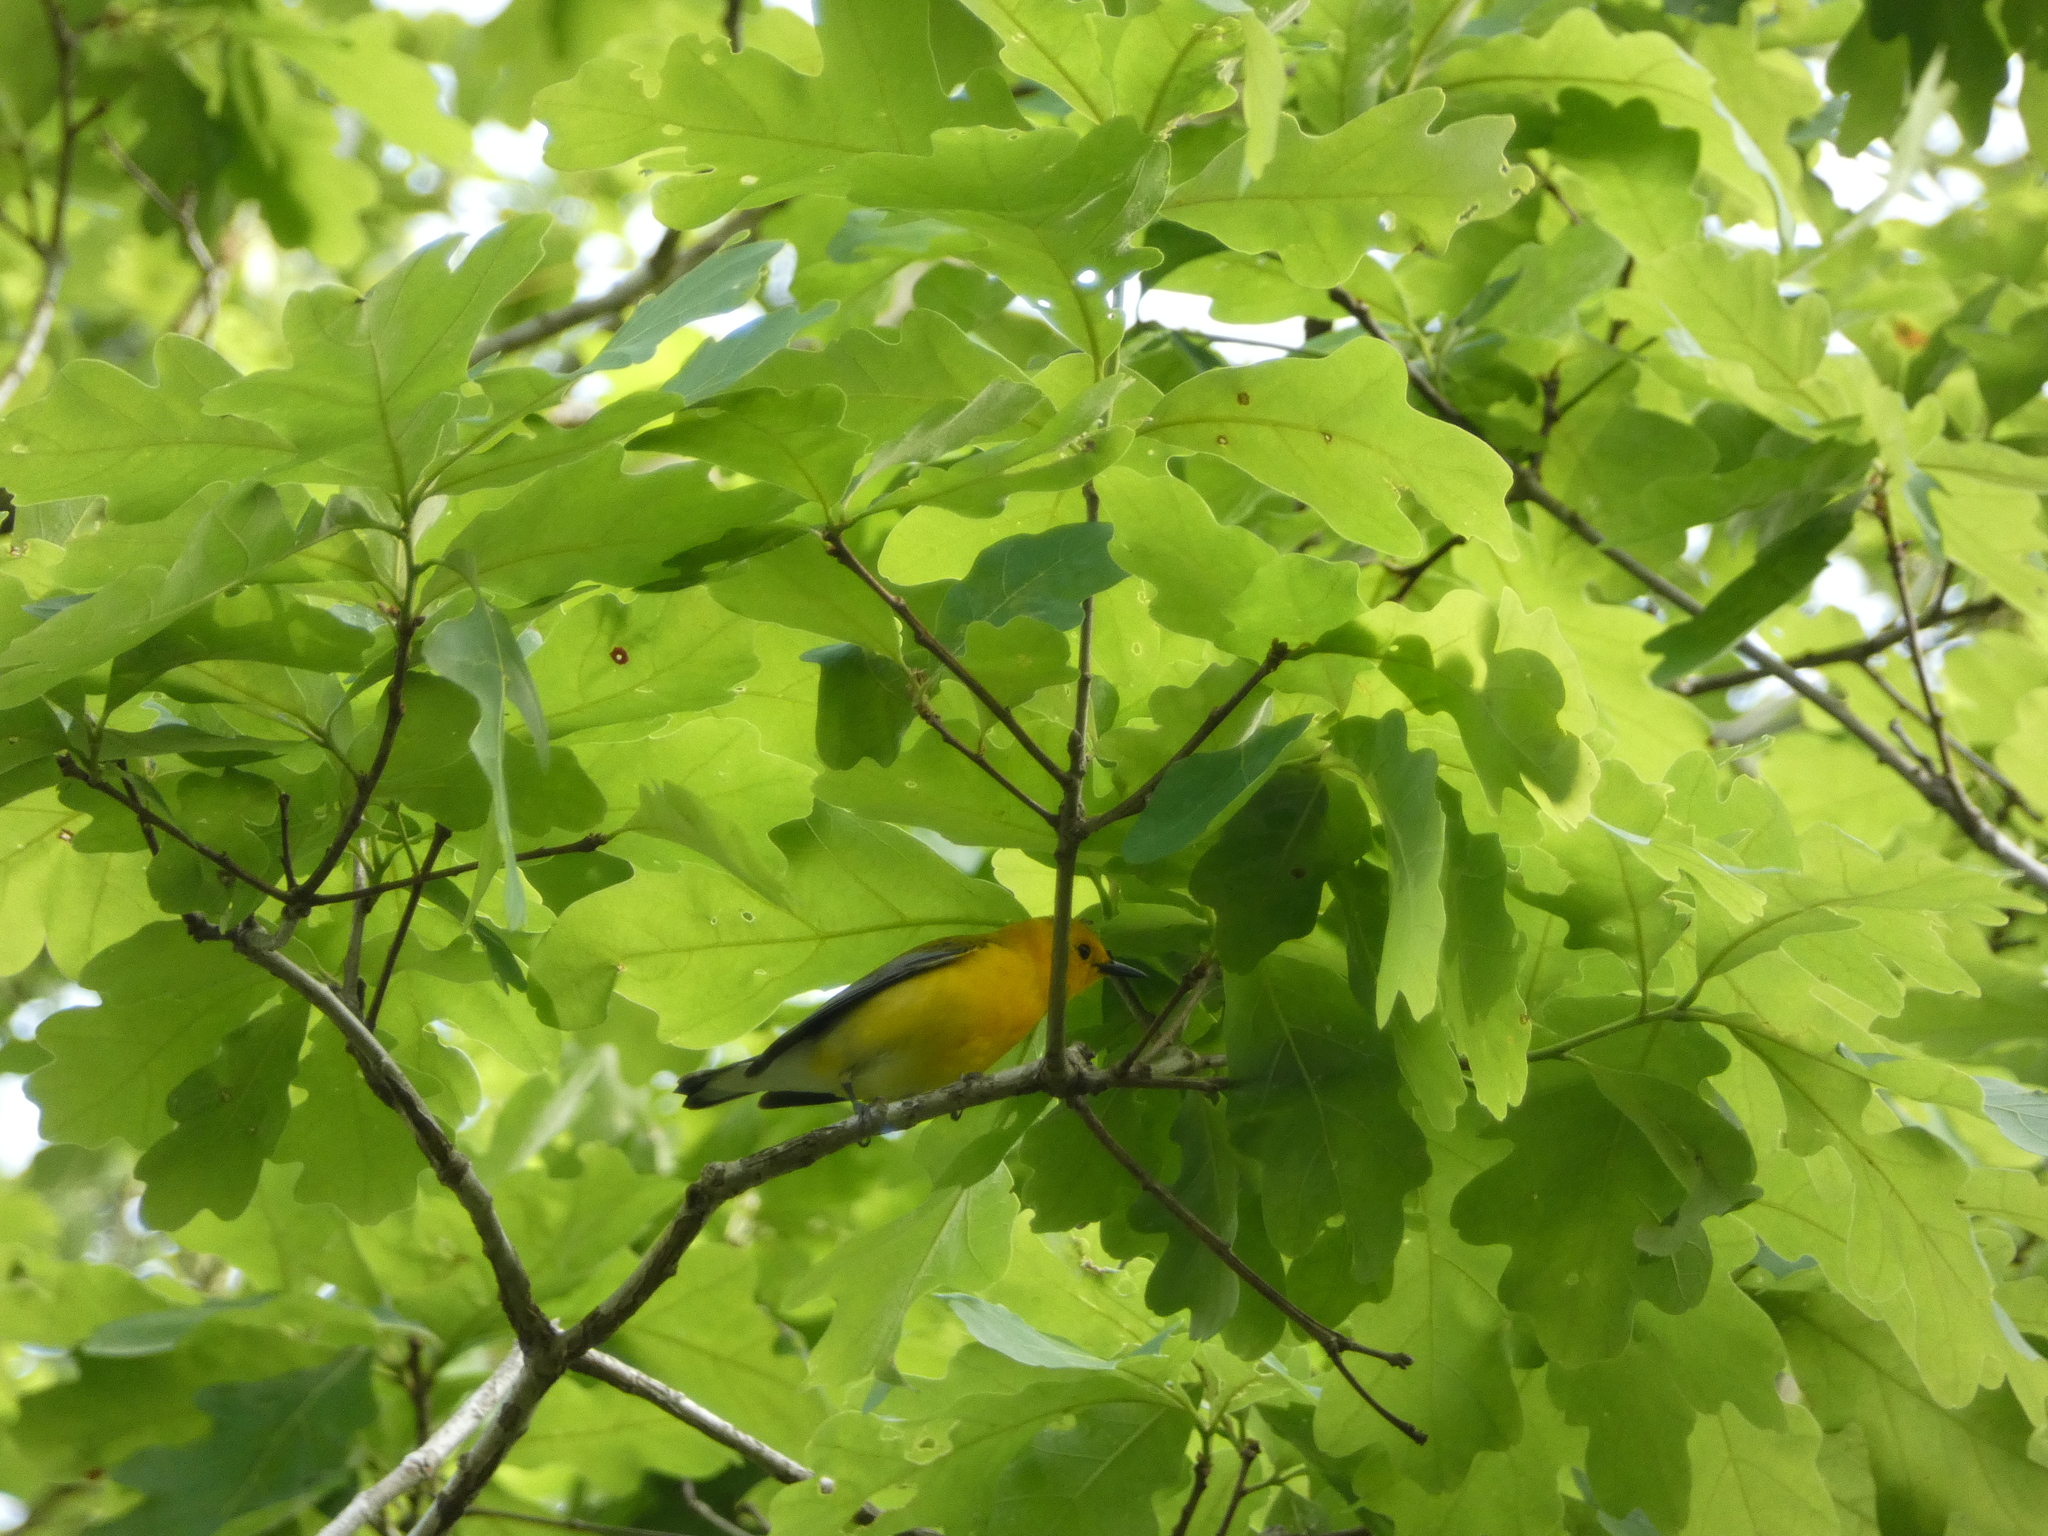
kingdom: Animalia
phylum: Chordata
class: Aves
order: Passeriformes
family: Parulidae
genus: Protonotaria
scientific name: Protonotaria citrea
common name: Prothonotary warbler
